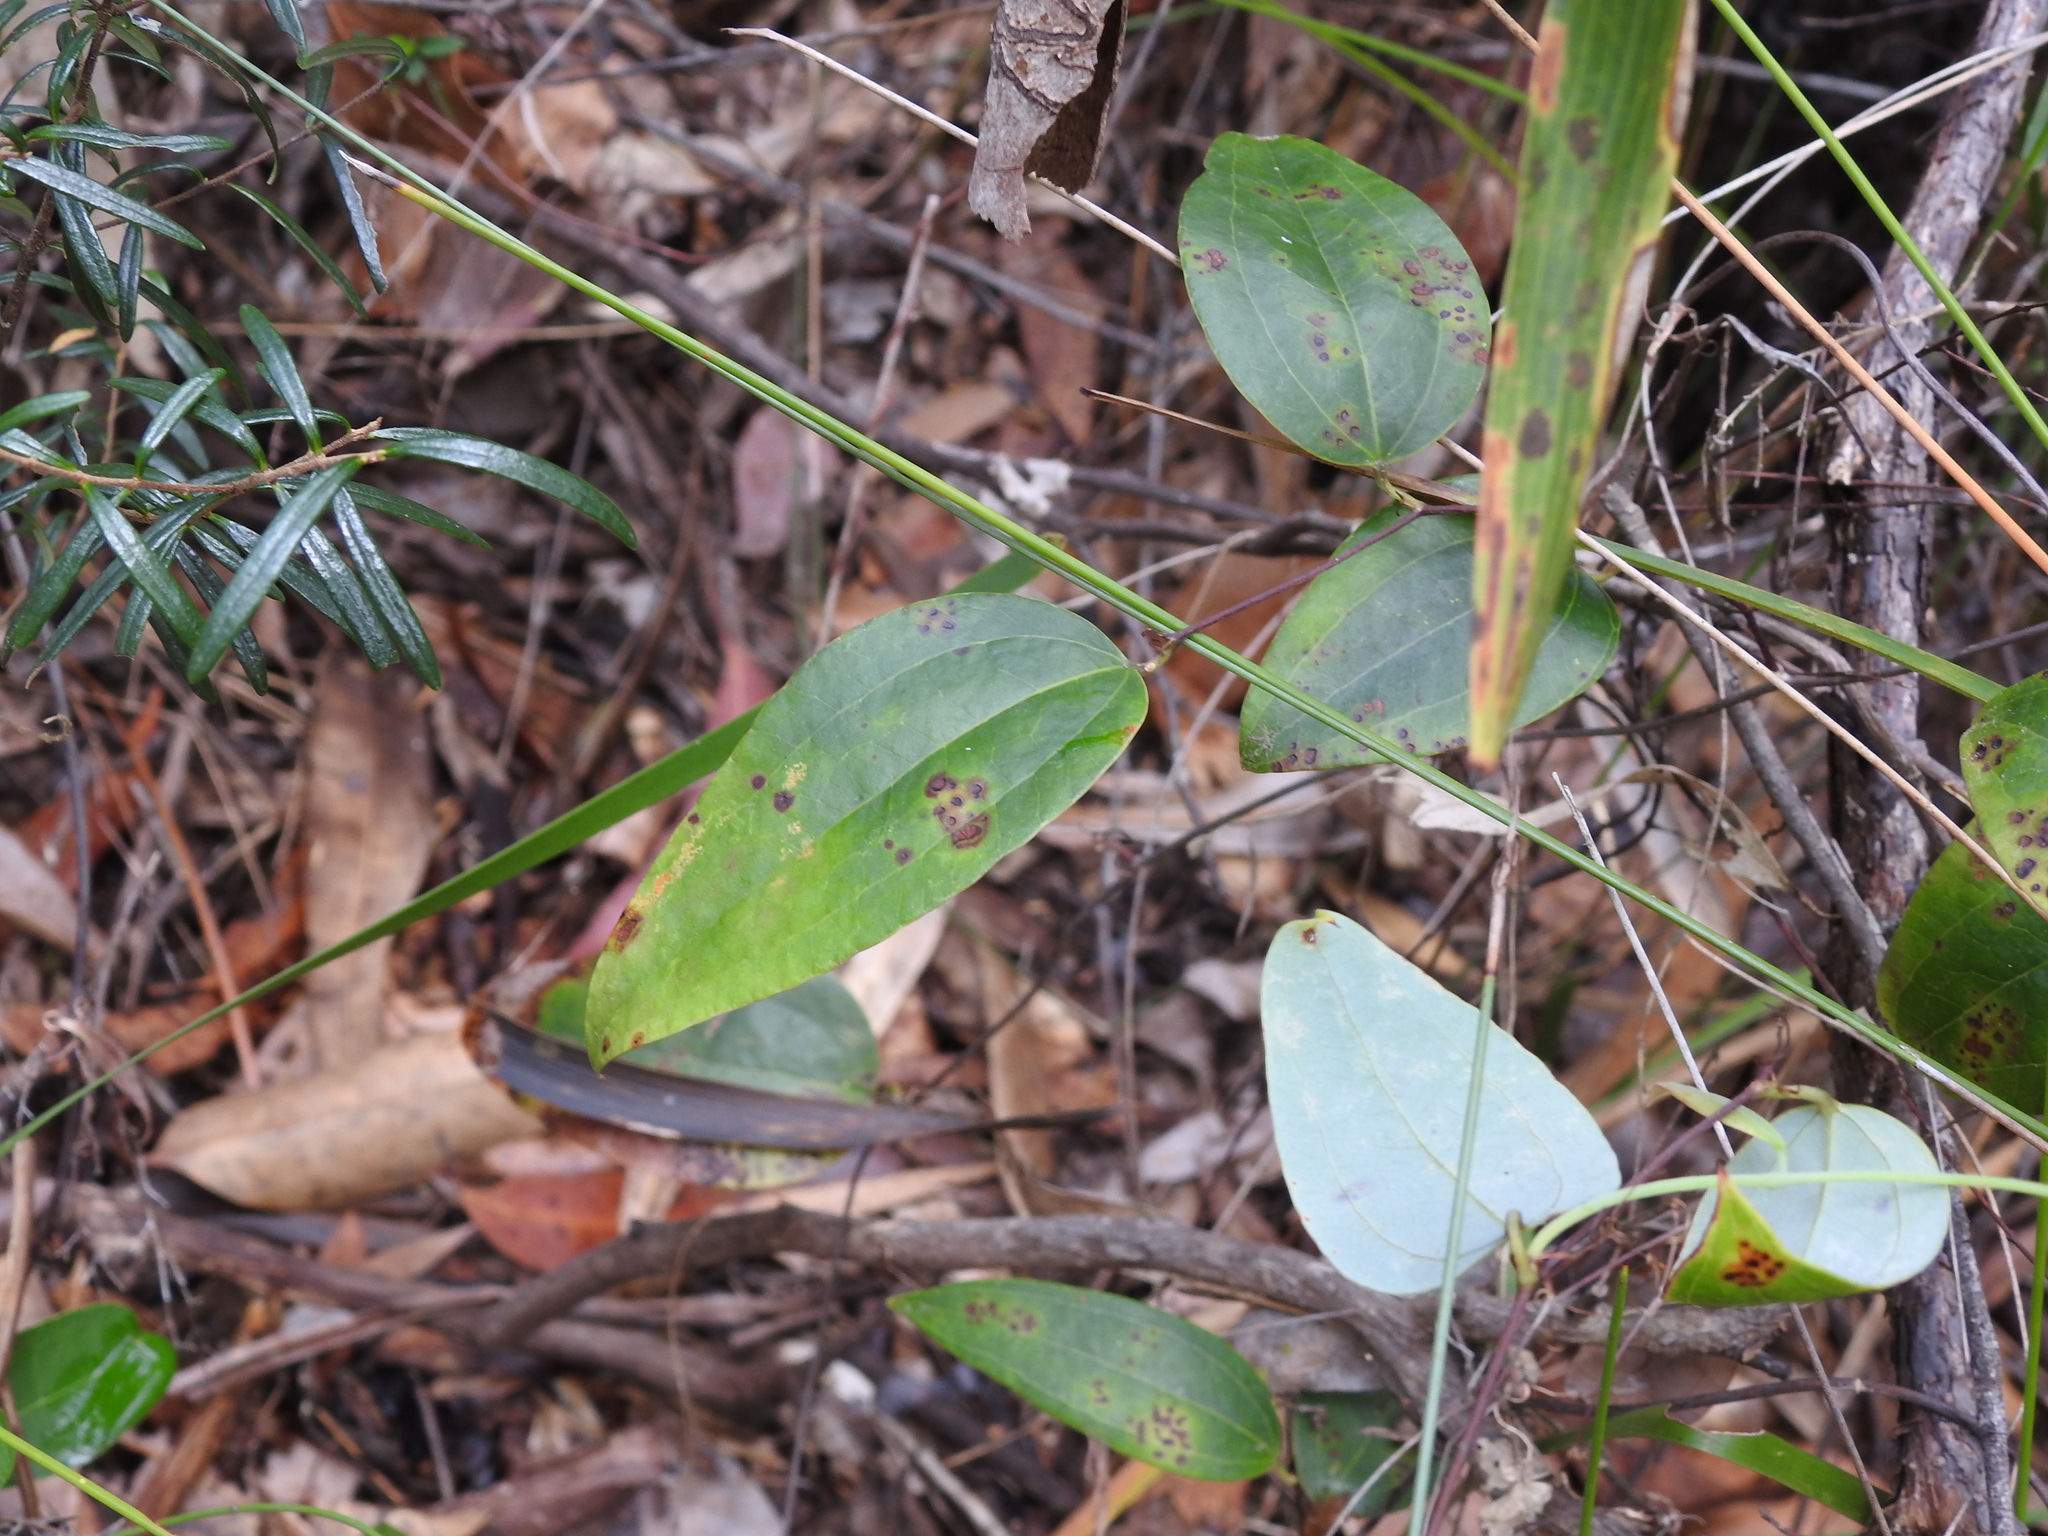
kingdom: Plantae
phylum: Tracheophyta
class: Liliopsida
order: Liliales
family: Smilacaceae
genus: Smilax
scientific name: Smilax glyciphylla
